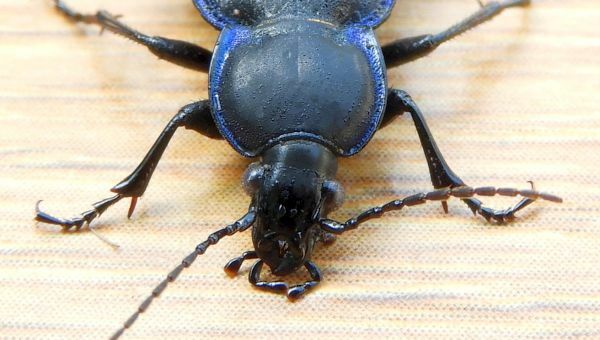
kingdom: Animalia
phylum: Arthropoda
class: Insecta
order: Coleoptera
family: Carabidae
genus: Carabus
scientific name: Carabus serratus
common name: Serrate-shoulder worm and slug hunter
